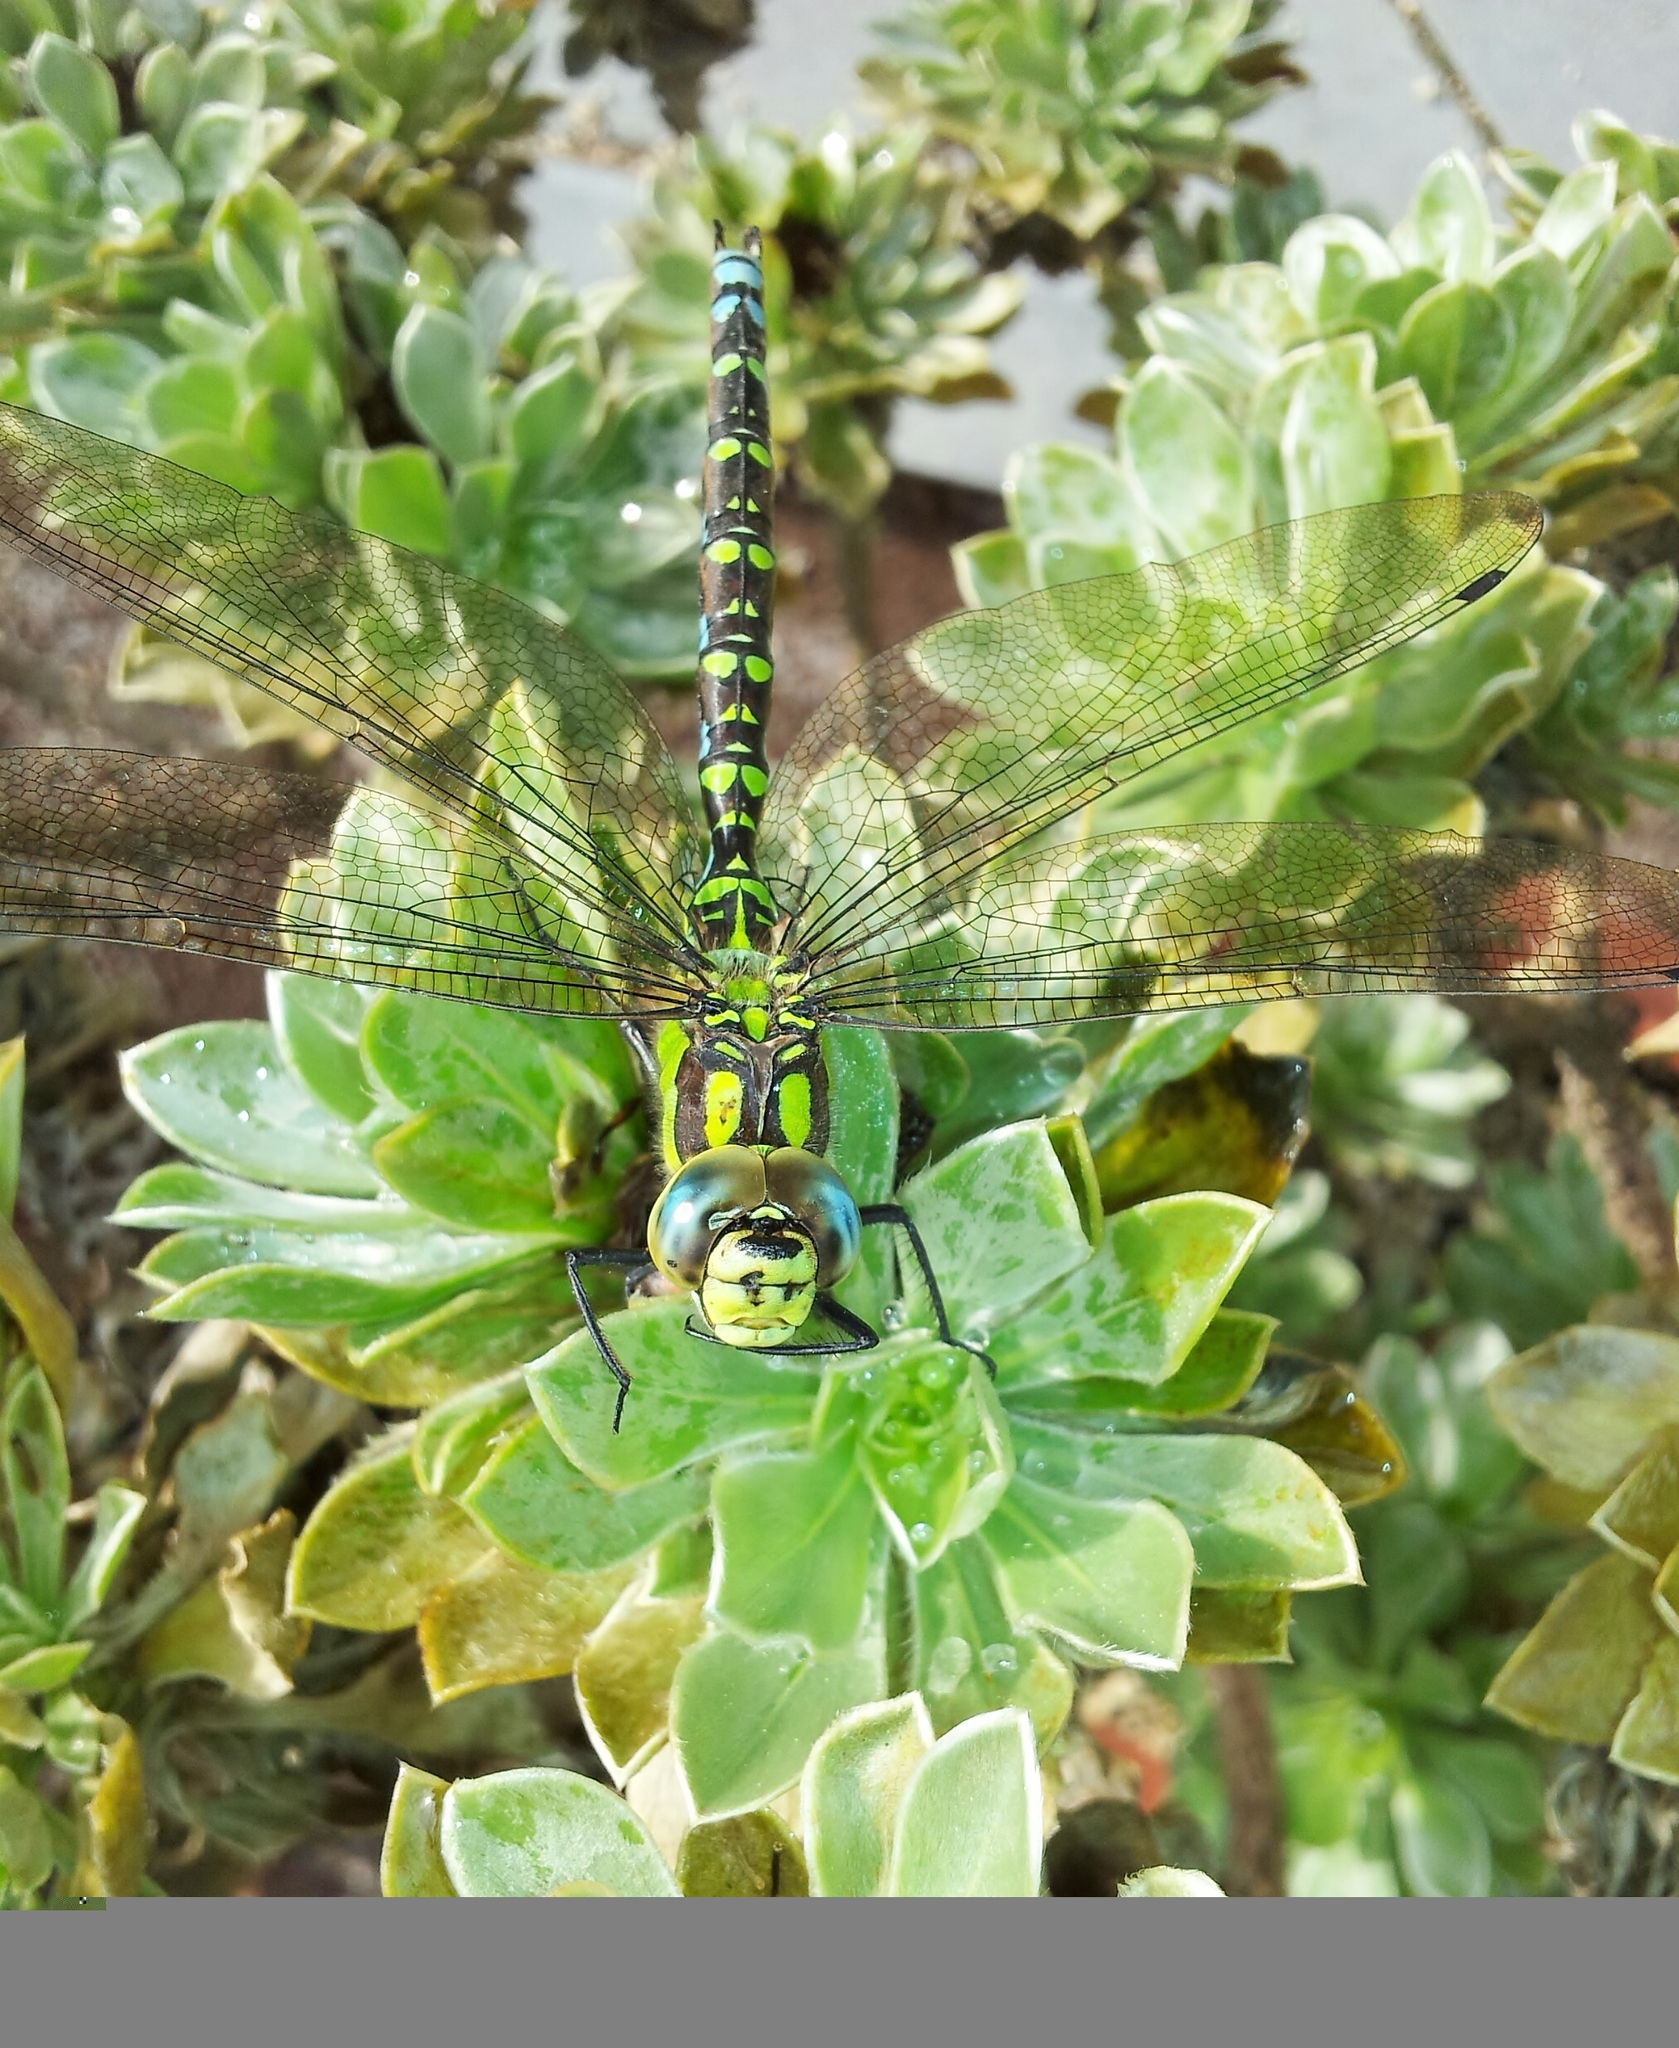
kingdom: Animalia
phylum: Arthropoda
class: Insecta
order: Odonata
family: Aeshnidae
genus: Aeshna
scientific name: Aeshna cyanea
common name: Southern hawker
